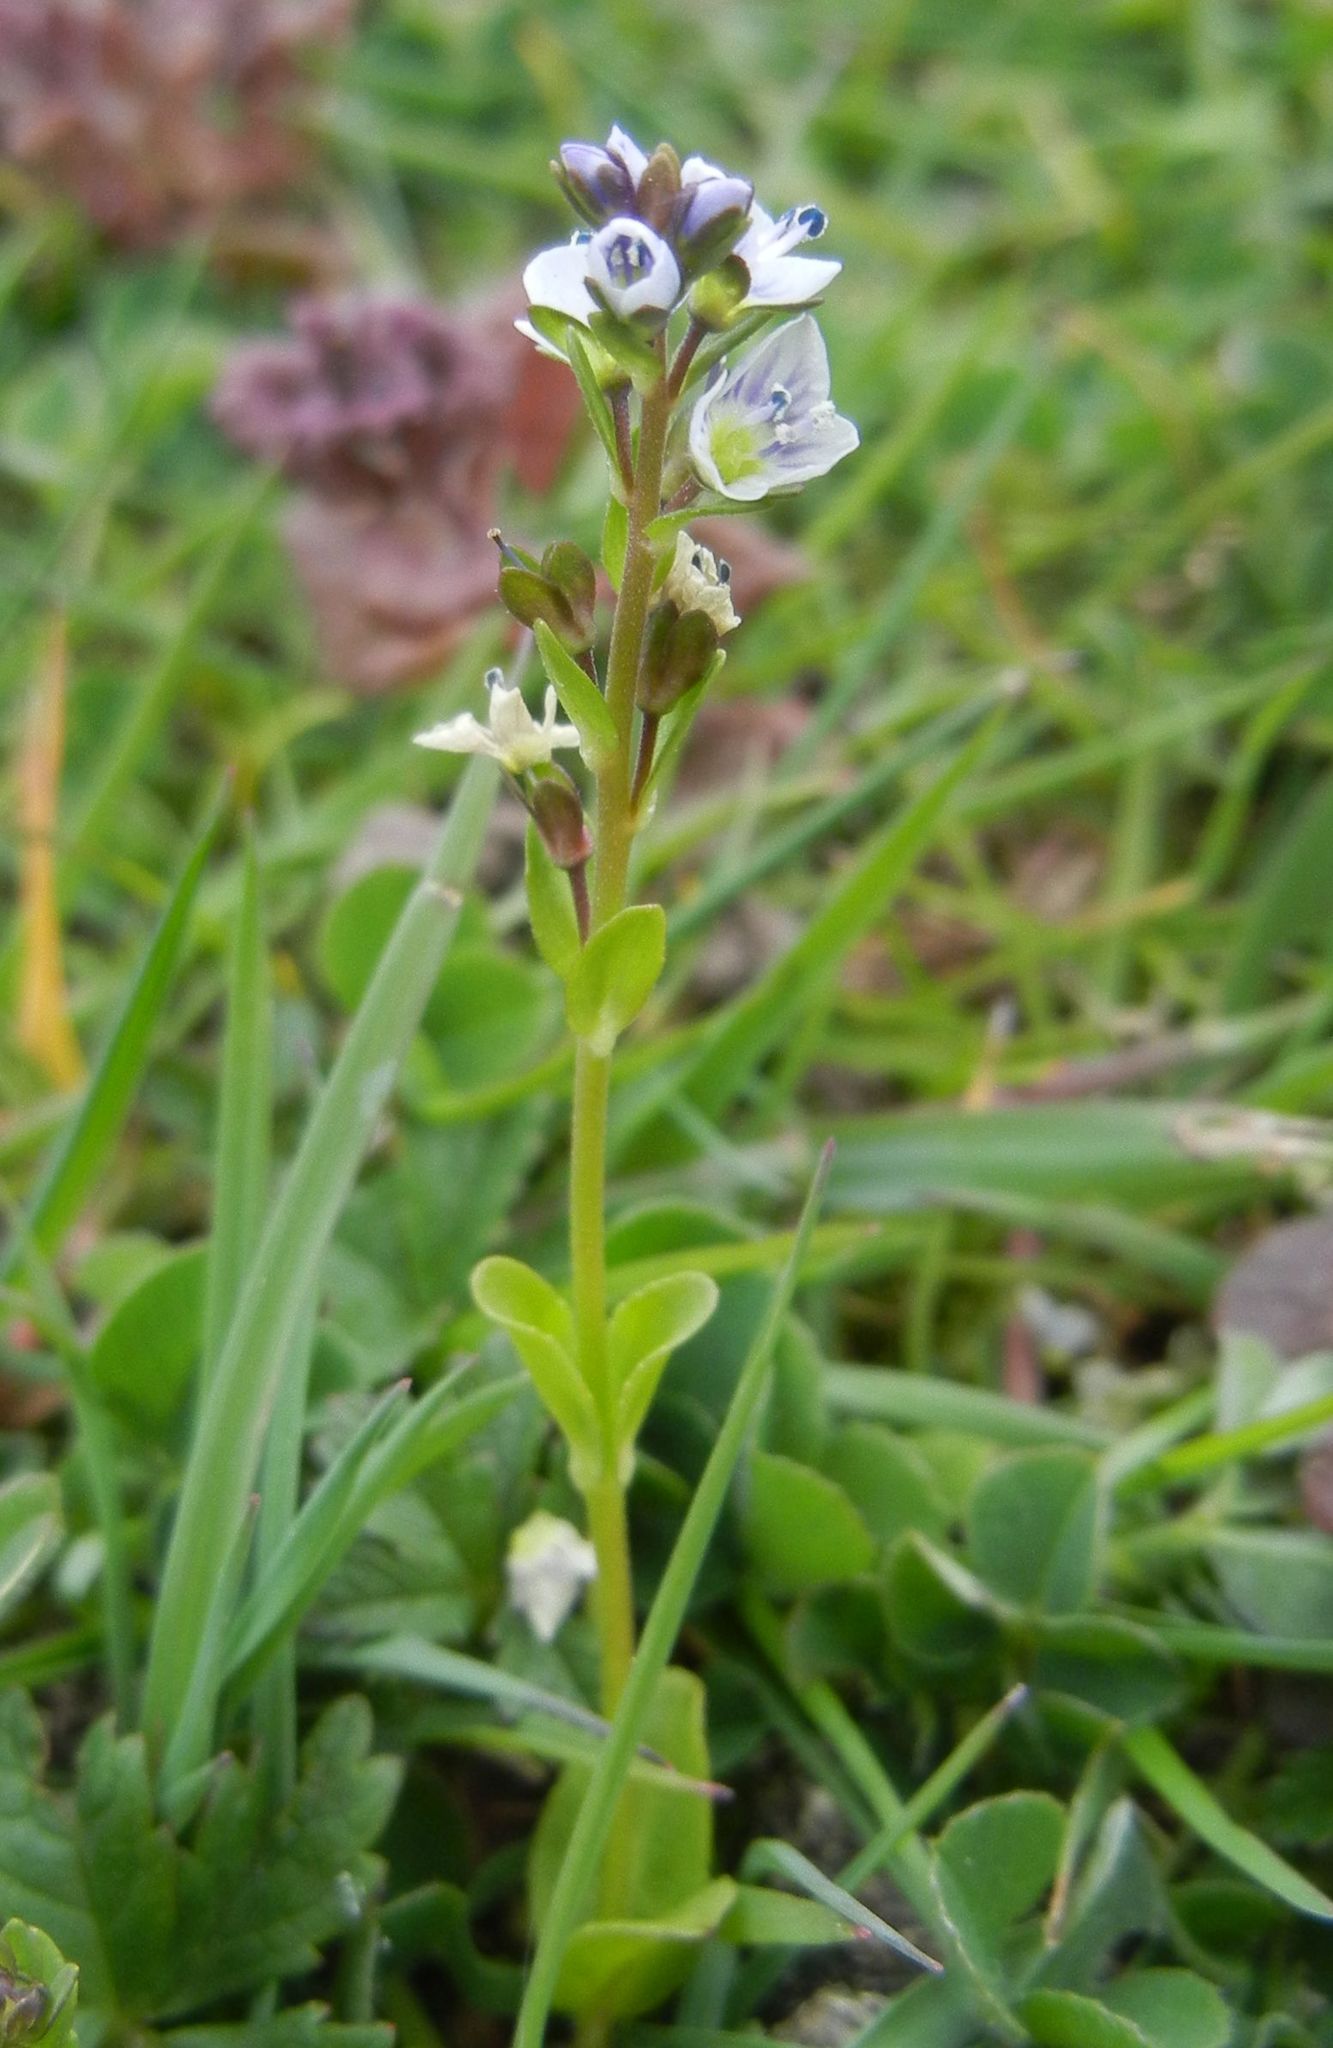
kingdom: Plantae
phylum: Tracheophyta
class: Magnoliopsida
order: Lamiales
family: Plantaginaceae
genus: Veronica
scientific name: Veronica serpyllifolia
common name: Thyme-leaved speedwell
